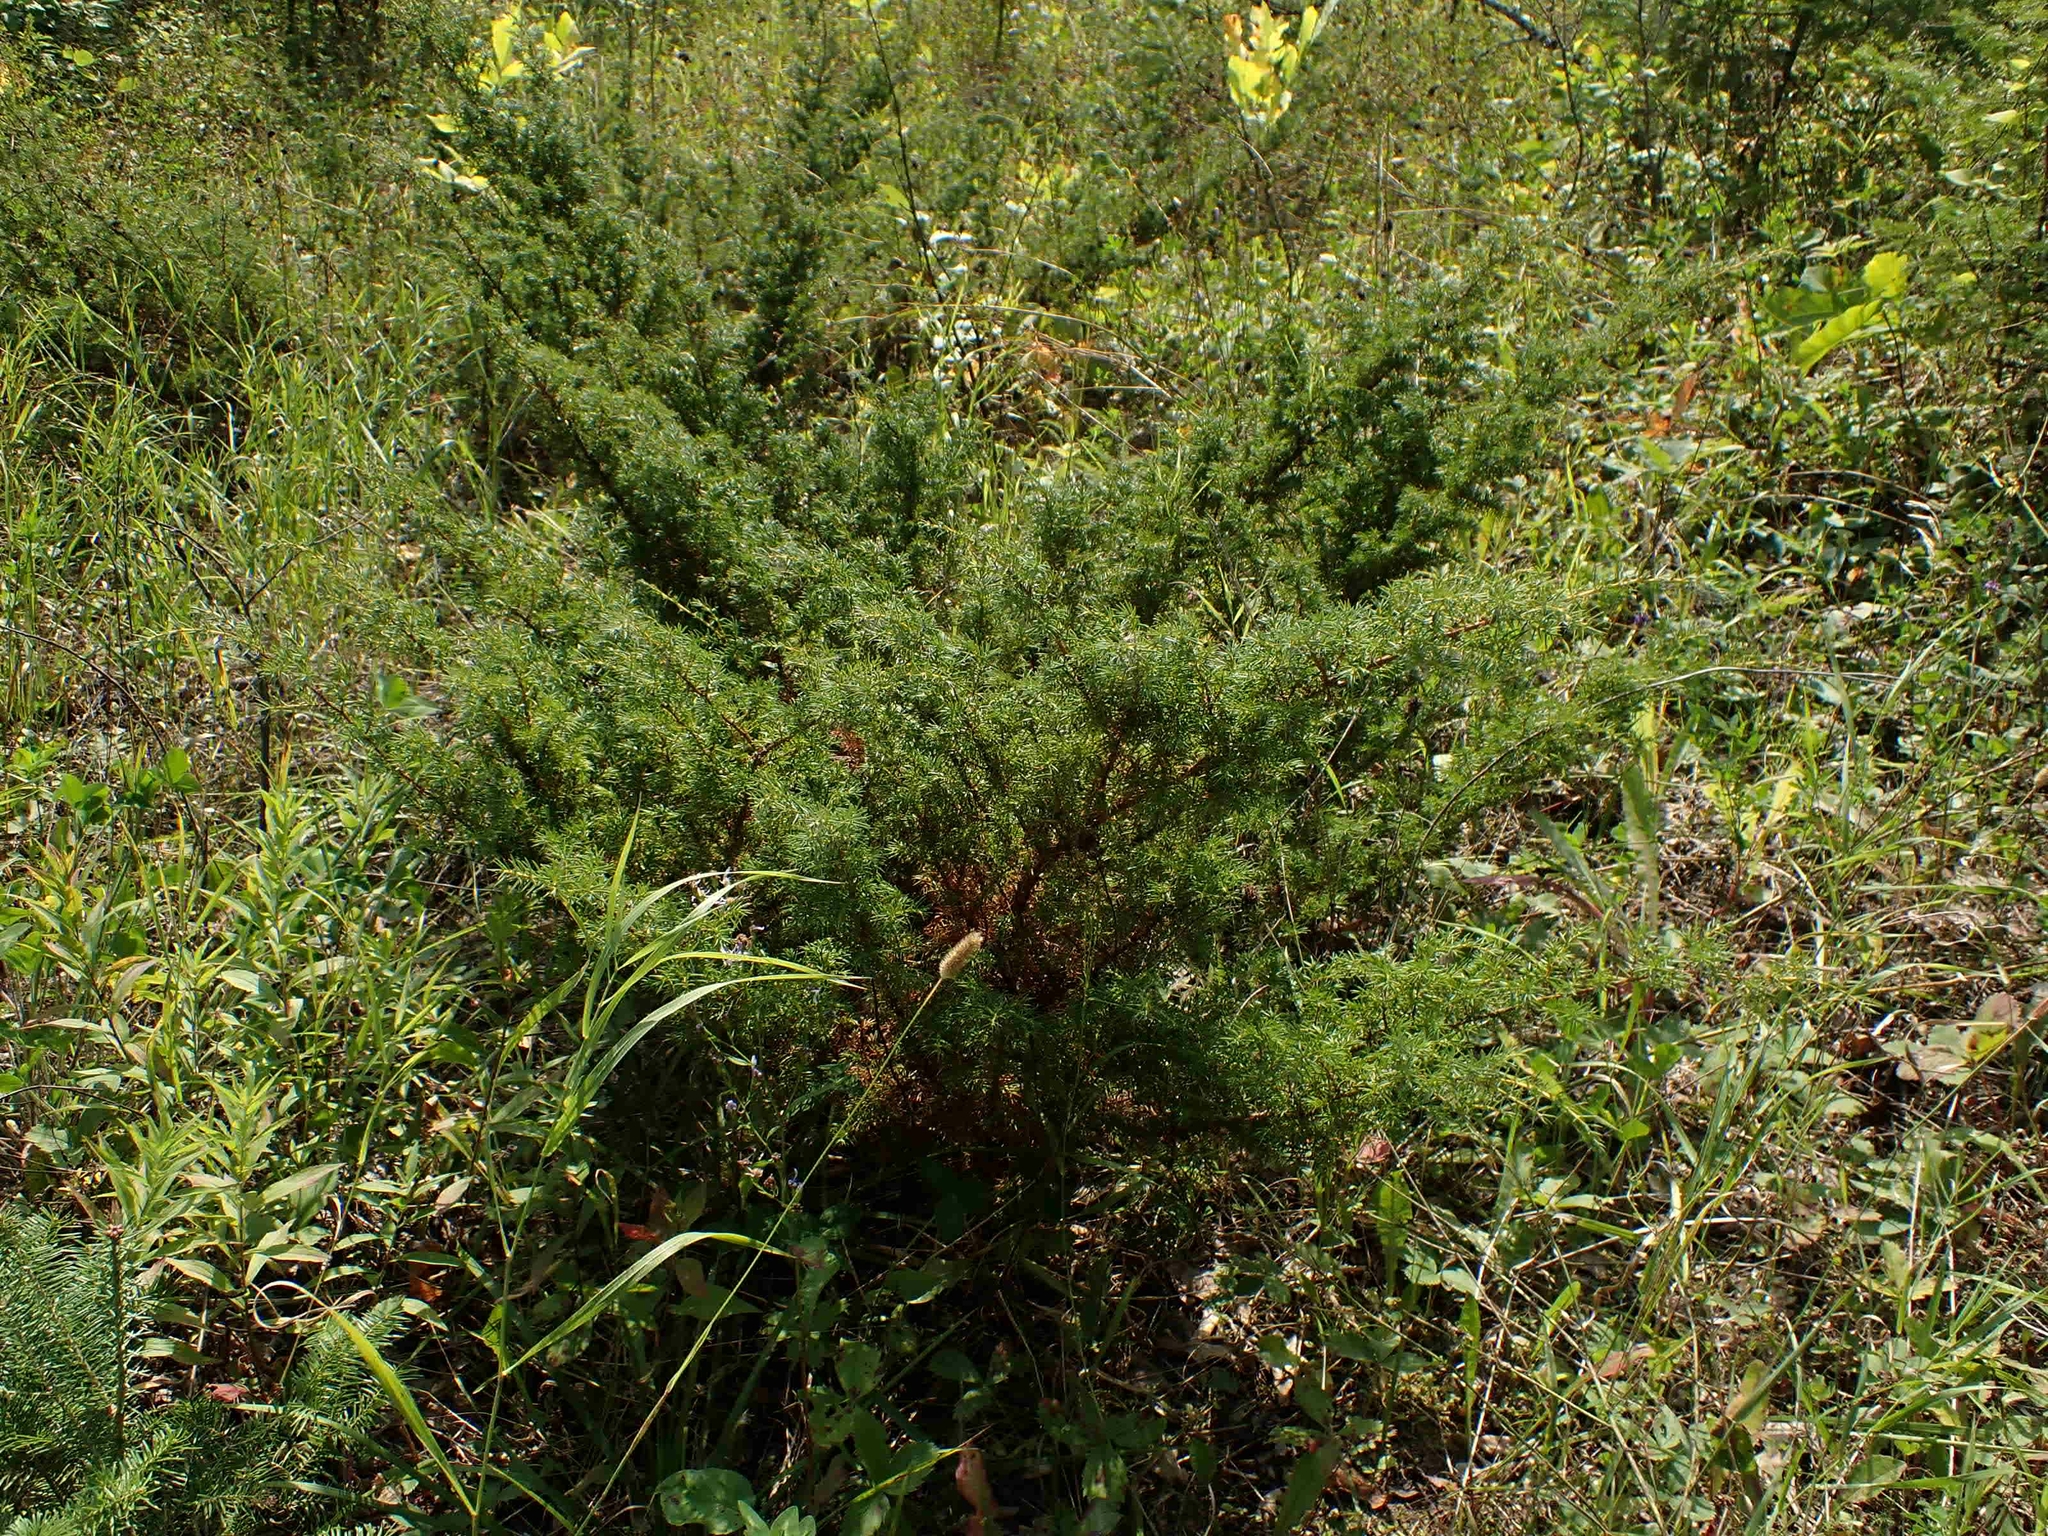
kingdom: Plantae
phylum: Tracheophyta
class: Pinopsida
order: Pinales
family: Cupressaceae
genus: Juniperus
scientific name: Juniperus communis
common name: Common juniper
